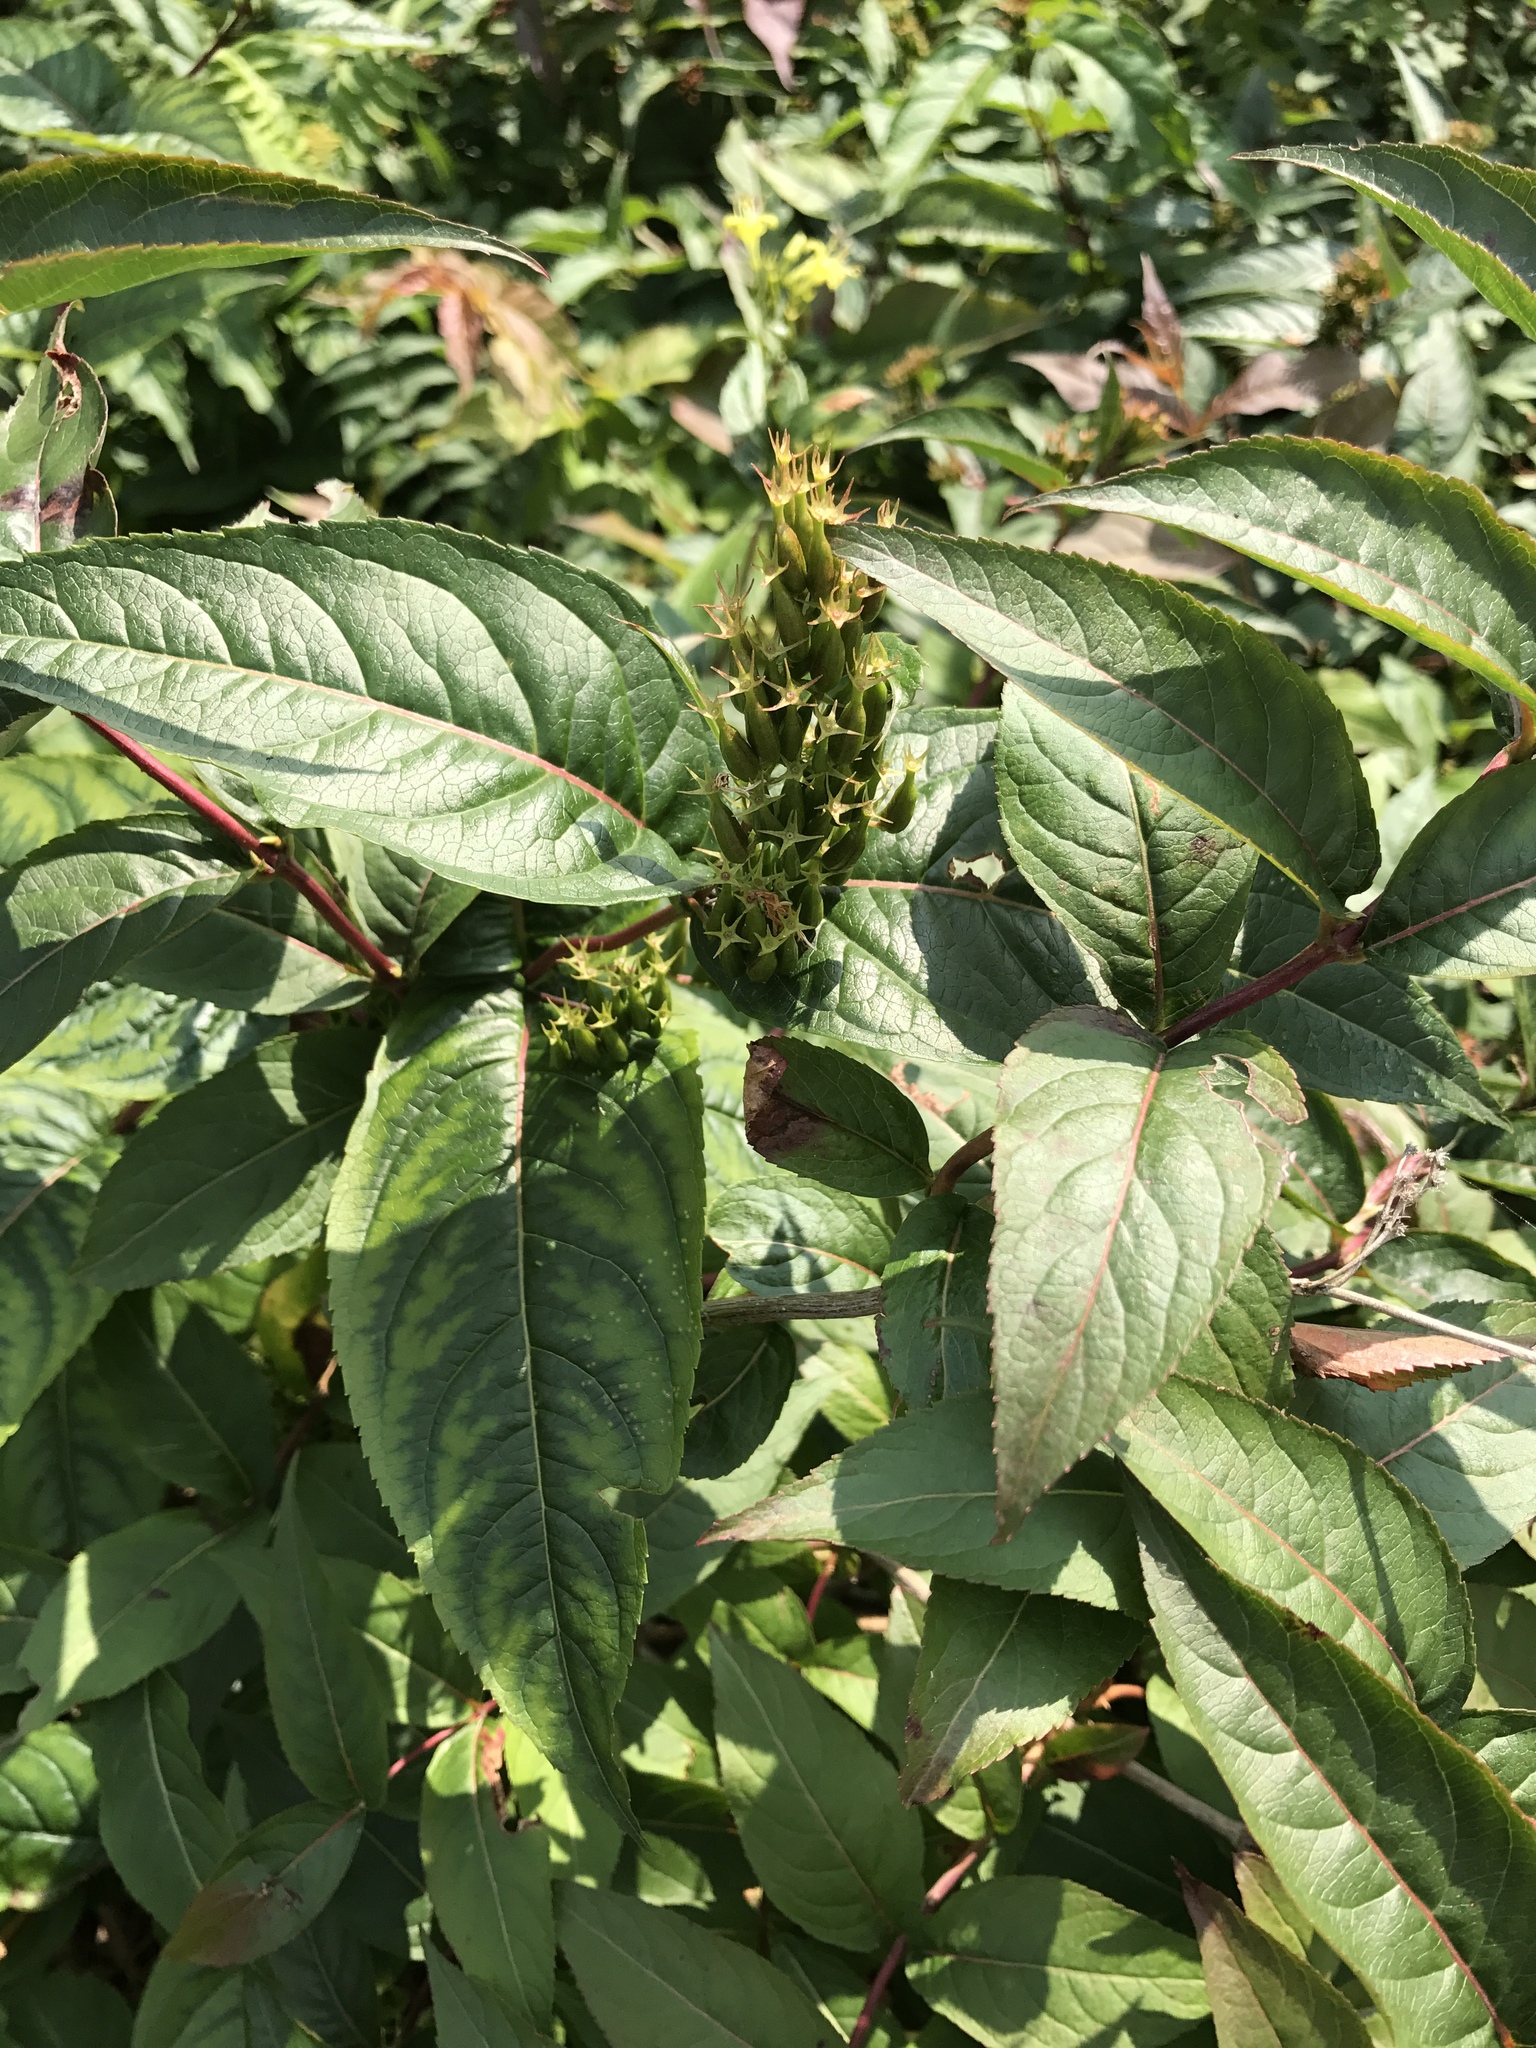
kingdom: Plantae
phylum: Tracheophyta
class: Magnoliopsida
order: Dipsacales
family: Caprifoliaceae
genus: Diervilla
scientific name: Diervilla lonicera
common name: Bush-honeysuckle
